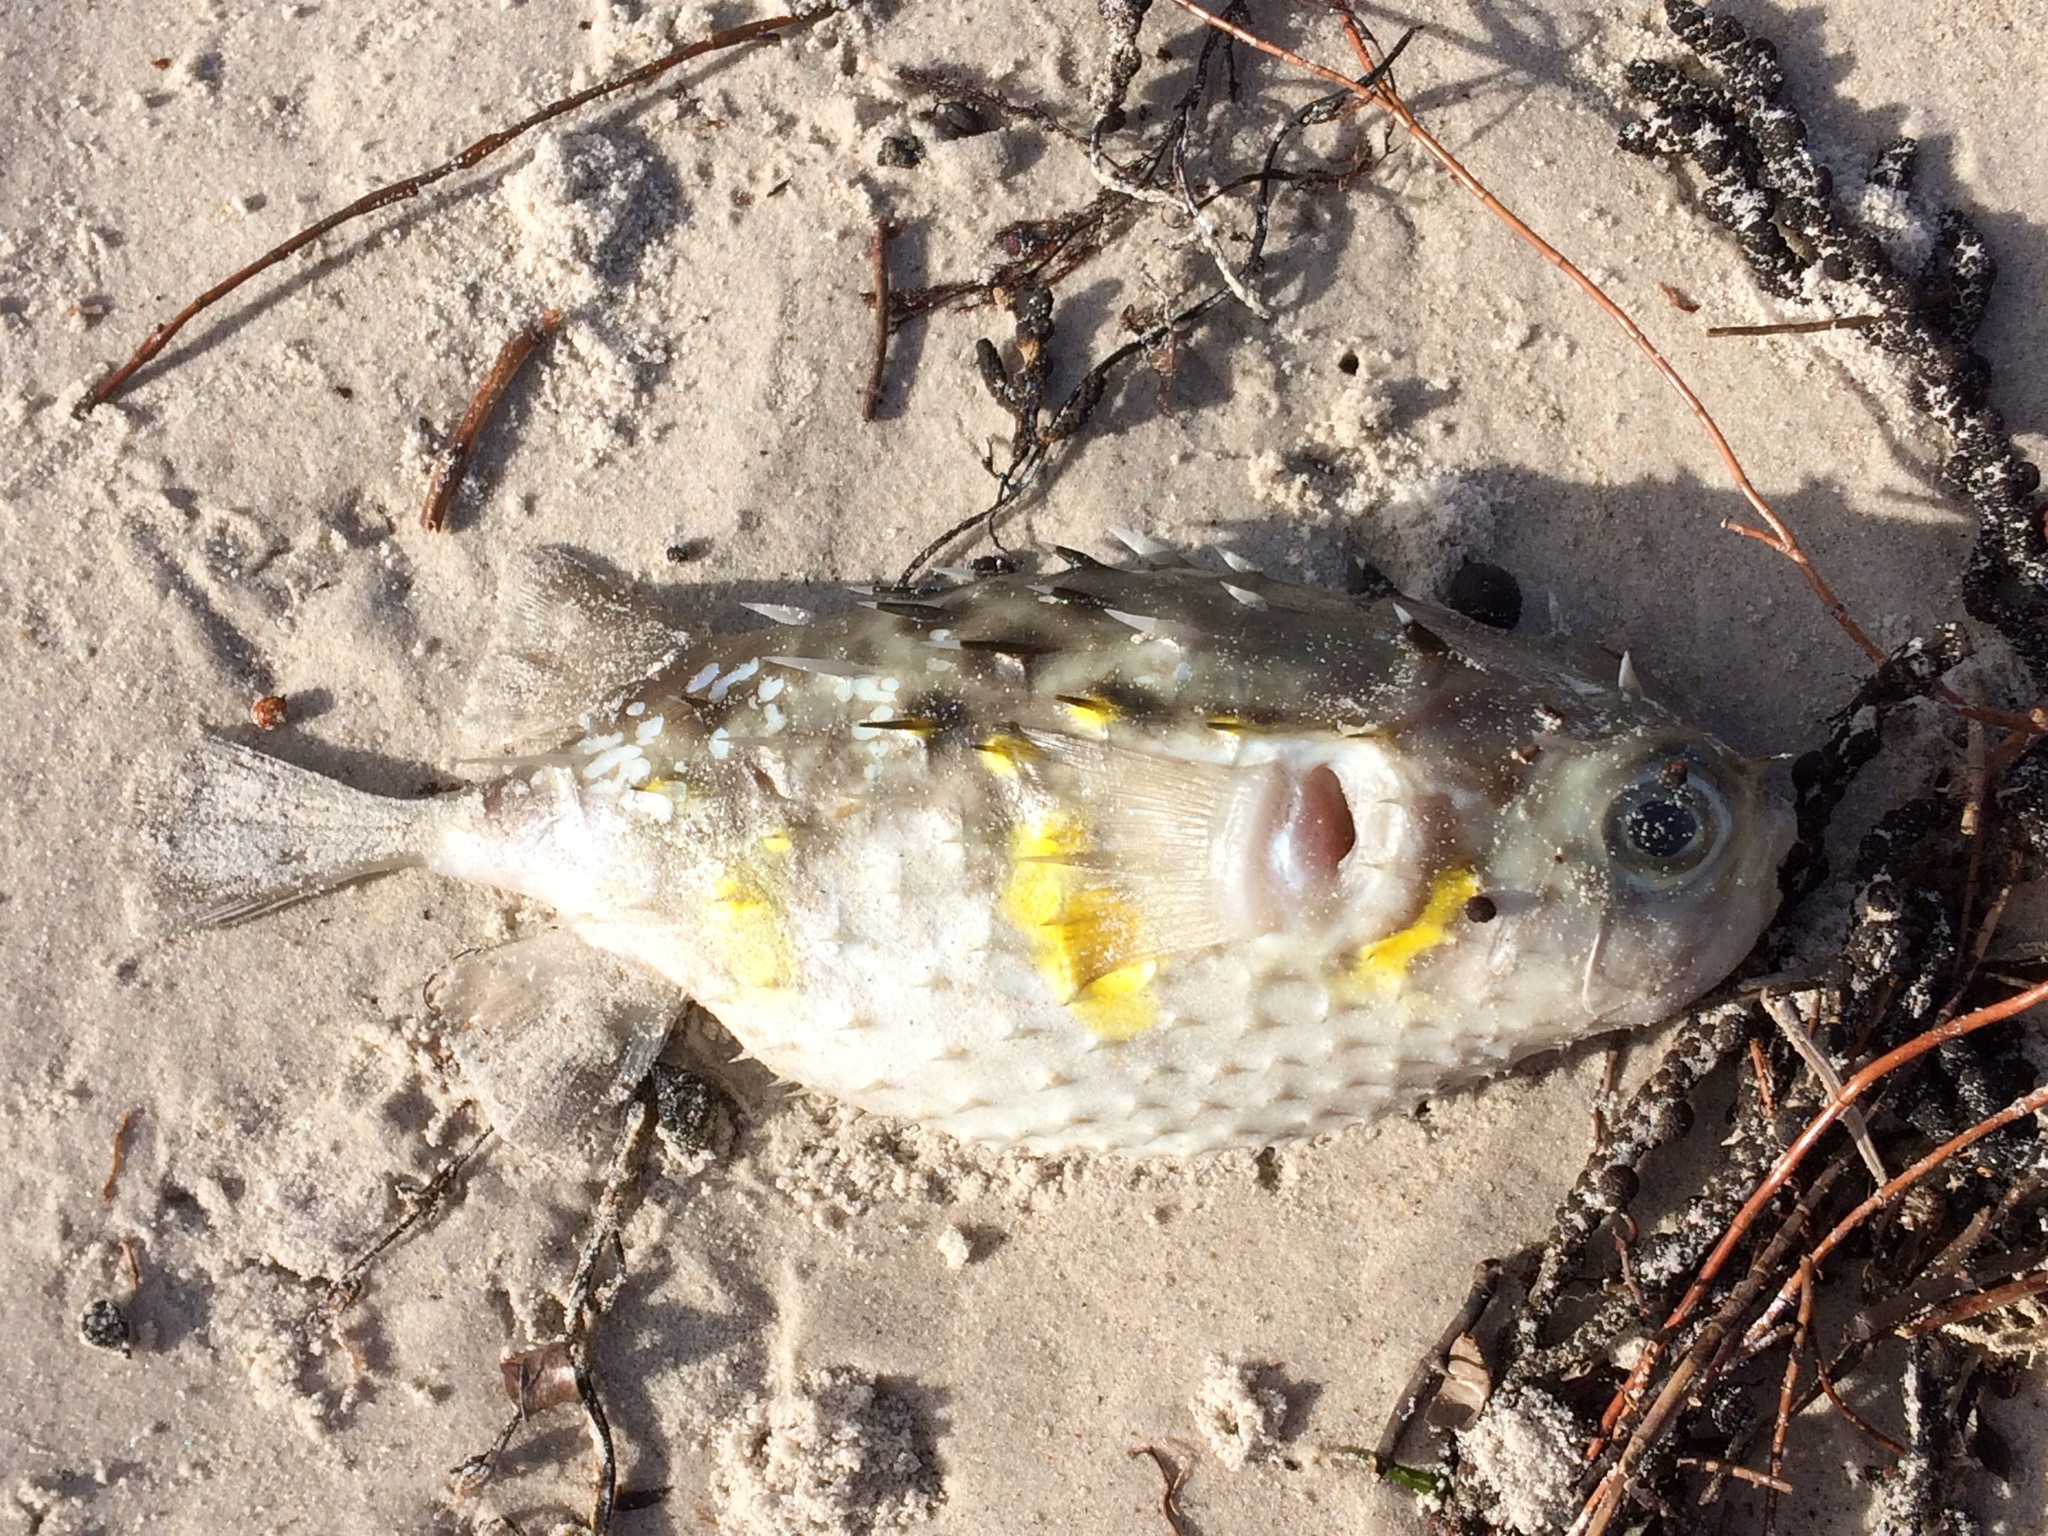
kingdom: Animalia
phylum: Chordata
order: Tetraodontiformes
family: Diodontidae
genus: Allomycterus
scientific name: Allomycterus pilatus
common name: No common name
